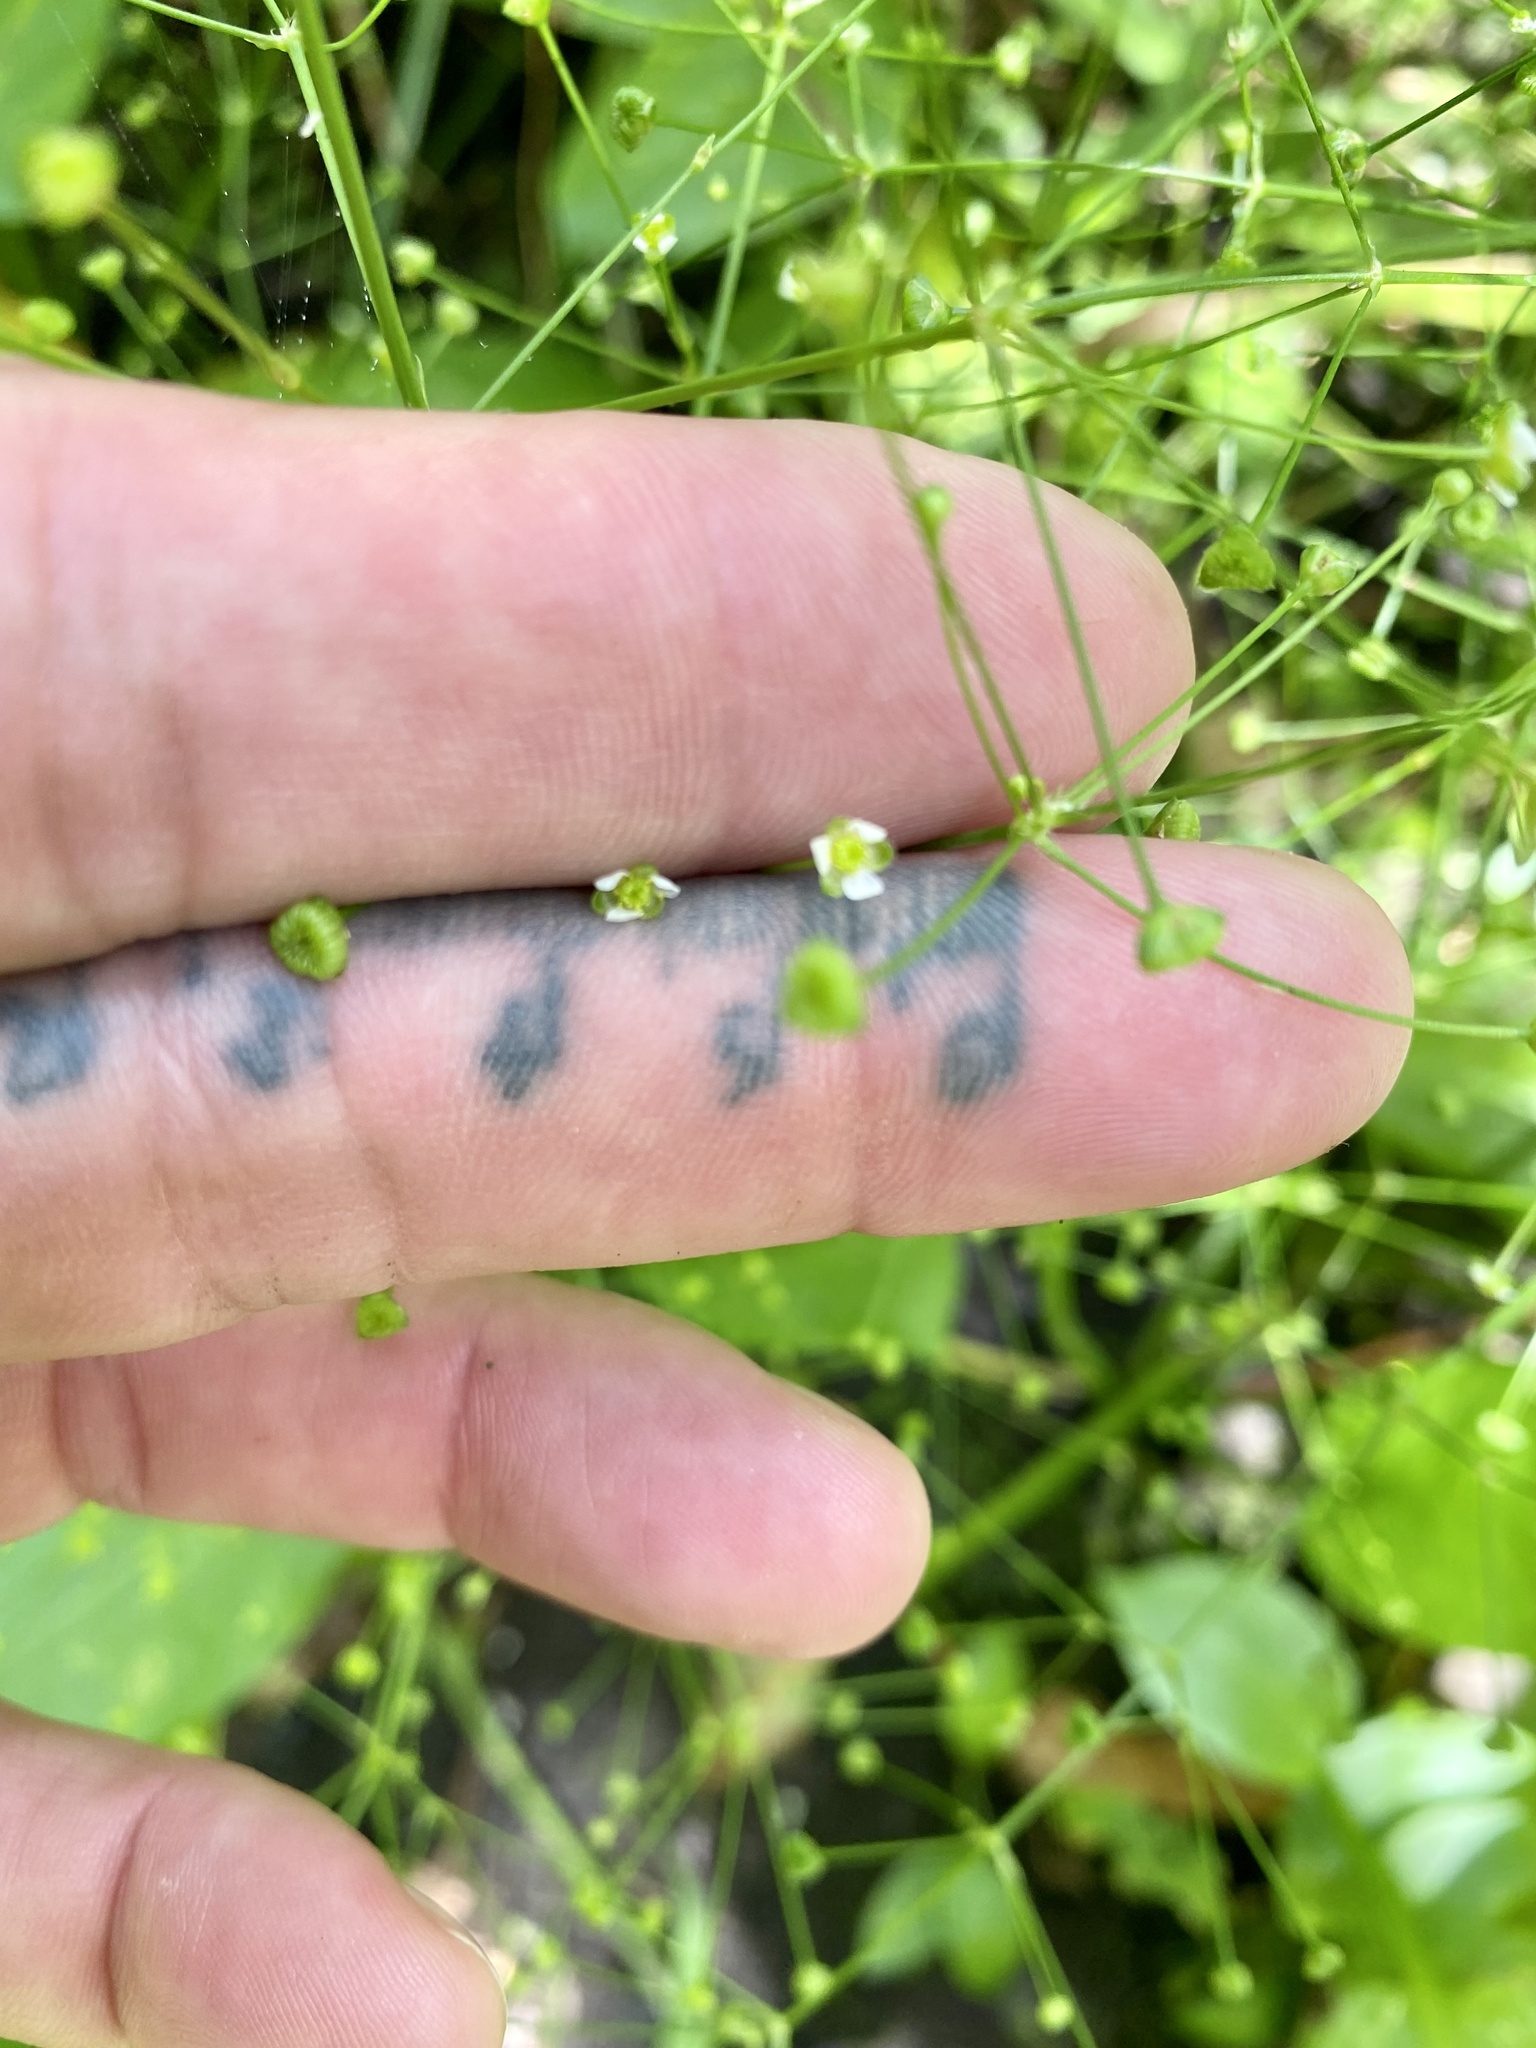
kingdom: Plantae
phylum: Tracheophyta
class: Liliopsida
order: Alismatales
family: Alismataceae
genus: Alisma
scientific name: Alisma subcordatum
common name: Southern water-plantain
